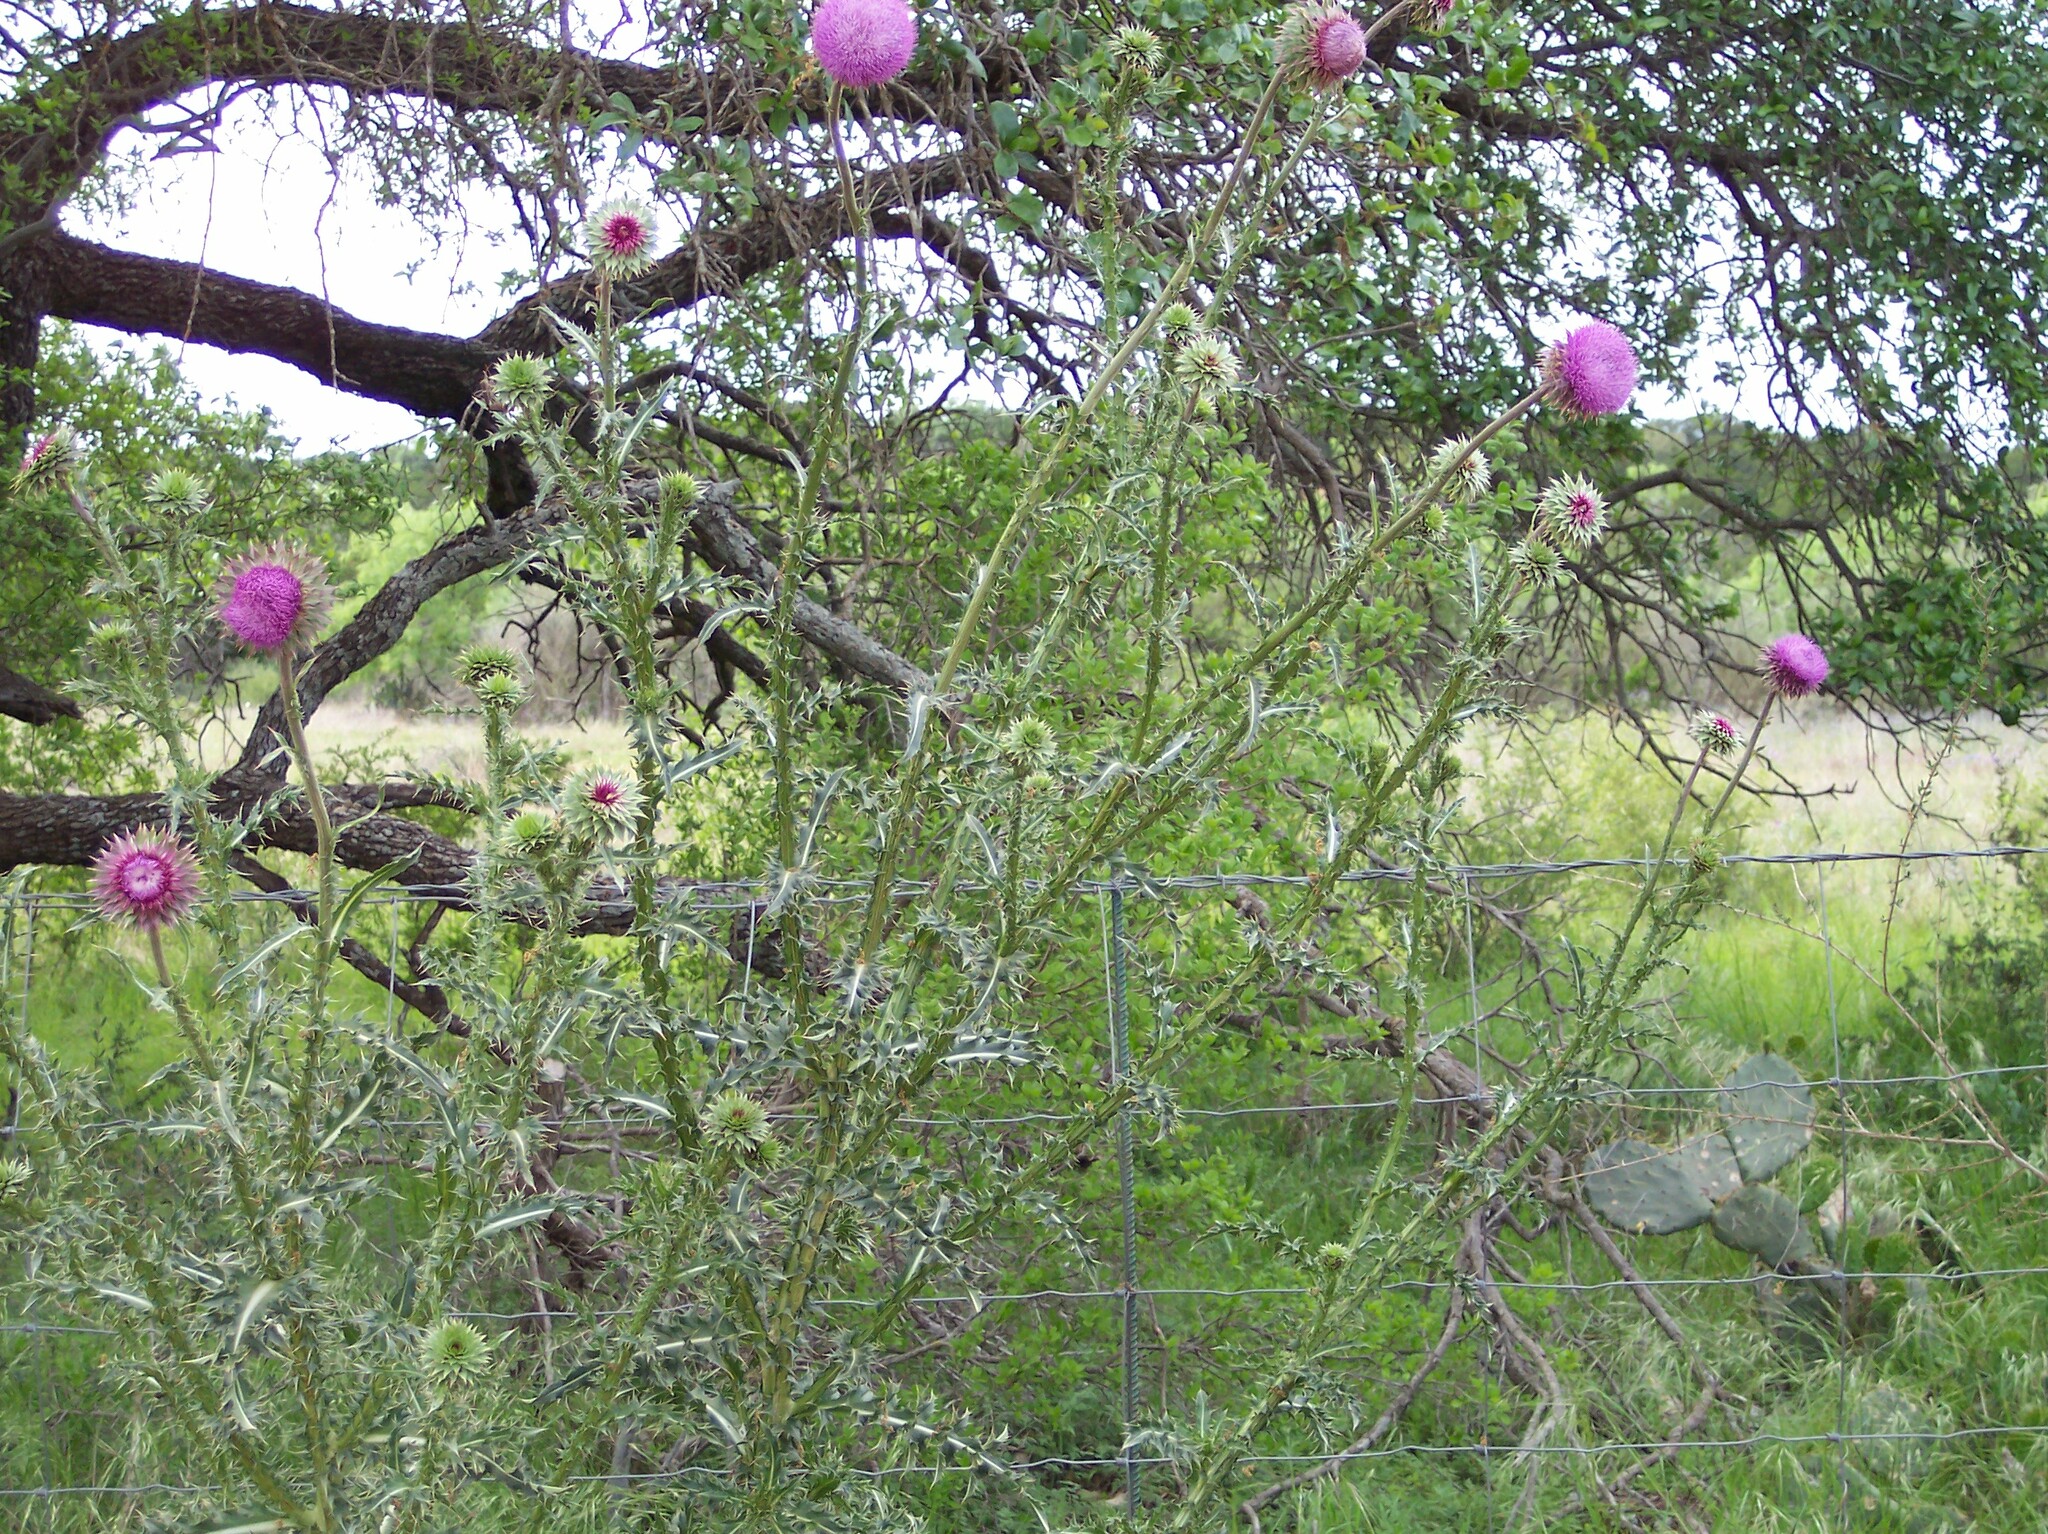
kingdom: Plantae
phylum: Tracheophyta
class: Magnoliopsida
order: Asterales
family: Asteraceae
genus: Carduus
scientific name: Carduus nutans
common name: Musk thistle
